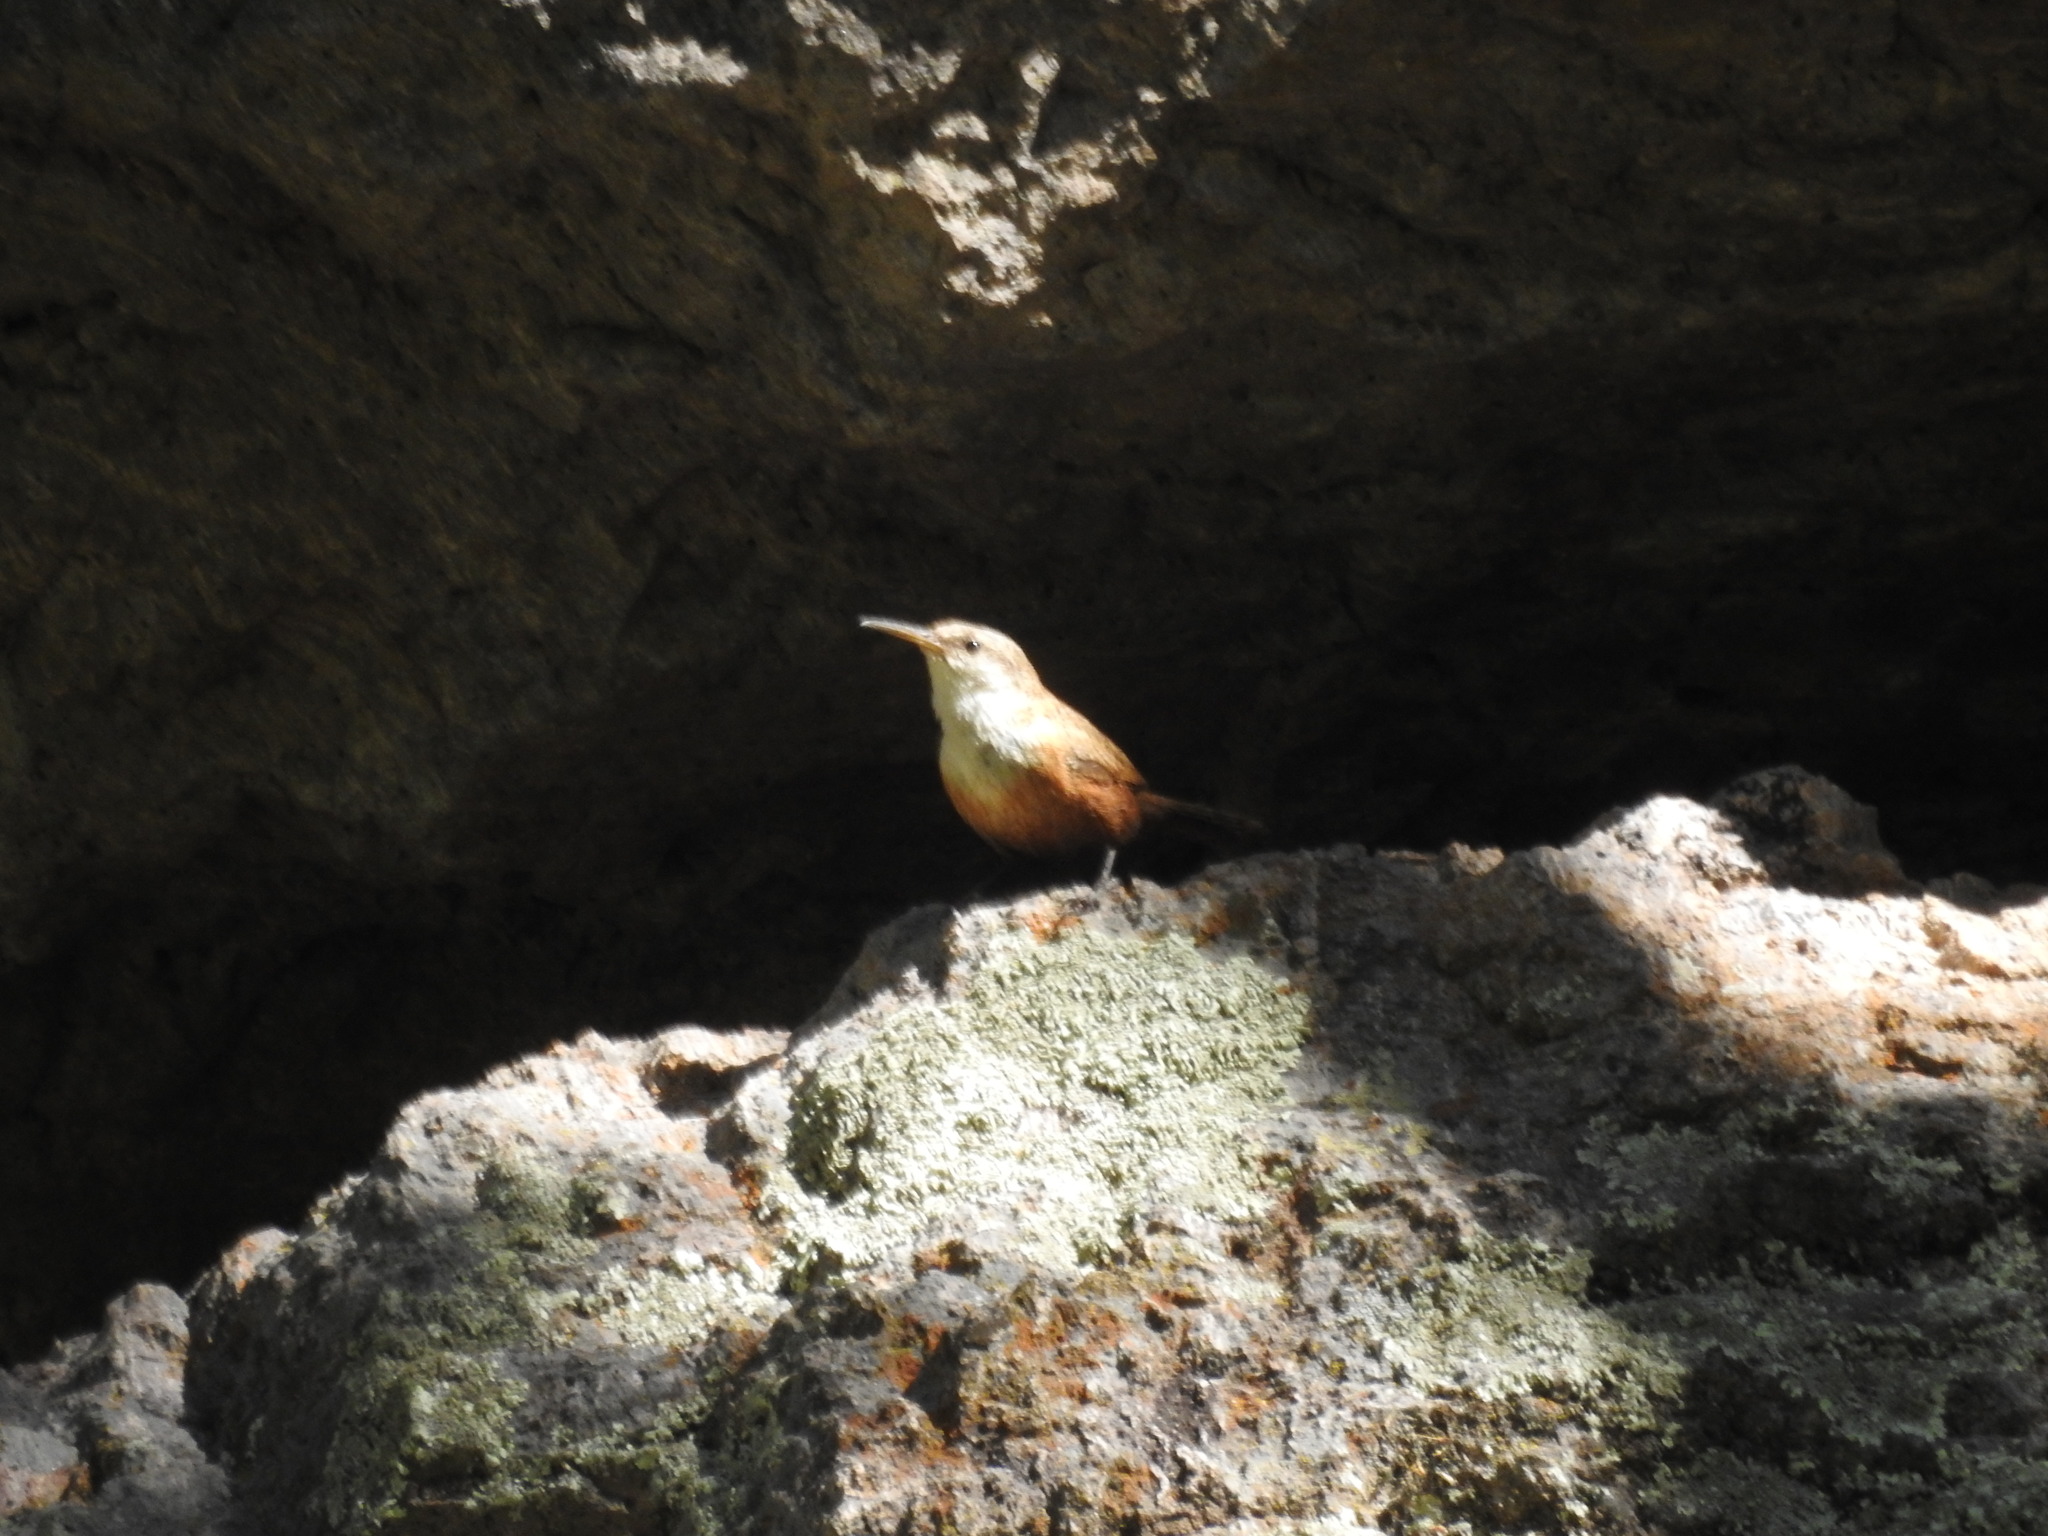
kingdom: Animalia
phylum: Chordata
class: Aves
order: Passeriformes
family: Troglodytidae
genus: Catherpes
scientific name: Catherpes mexicanus
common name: Canyon wren
